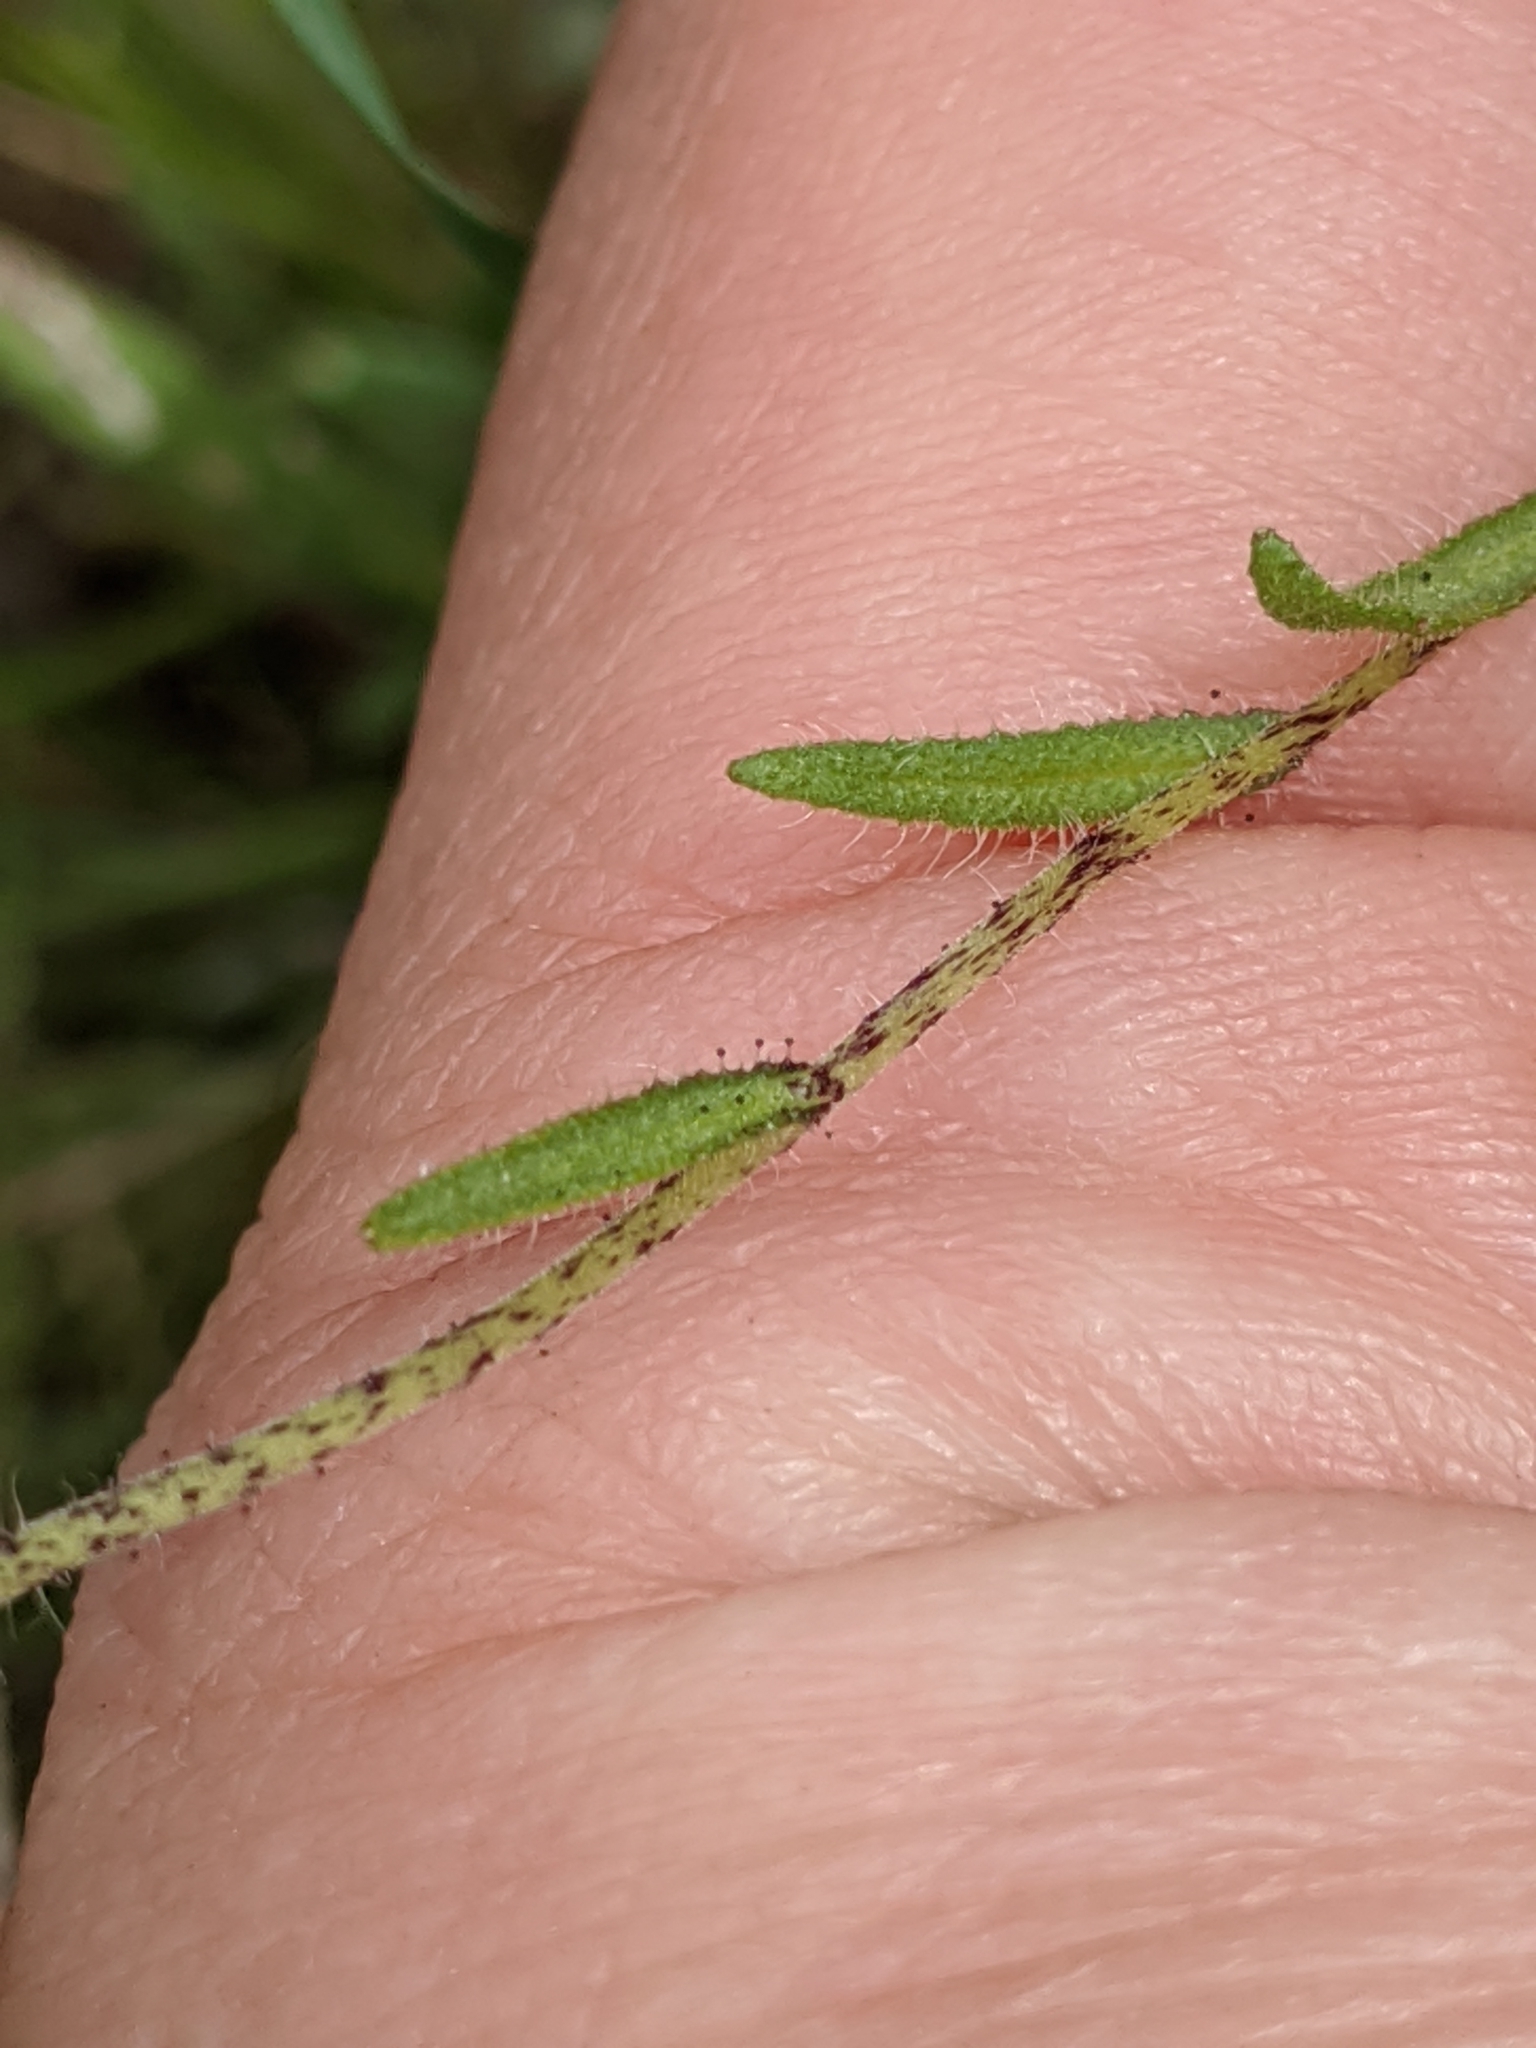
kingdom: Plantae
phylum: Tracheophyta
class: Magnoliopsida
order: Asterales
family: Asteraceae
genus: Layia
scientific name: Layia gaillardioides
